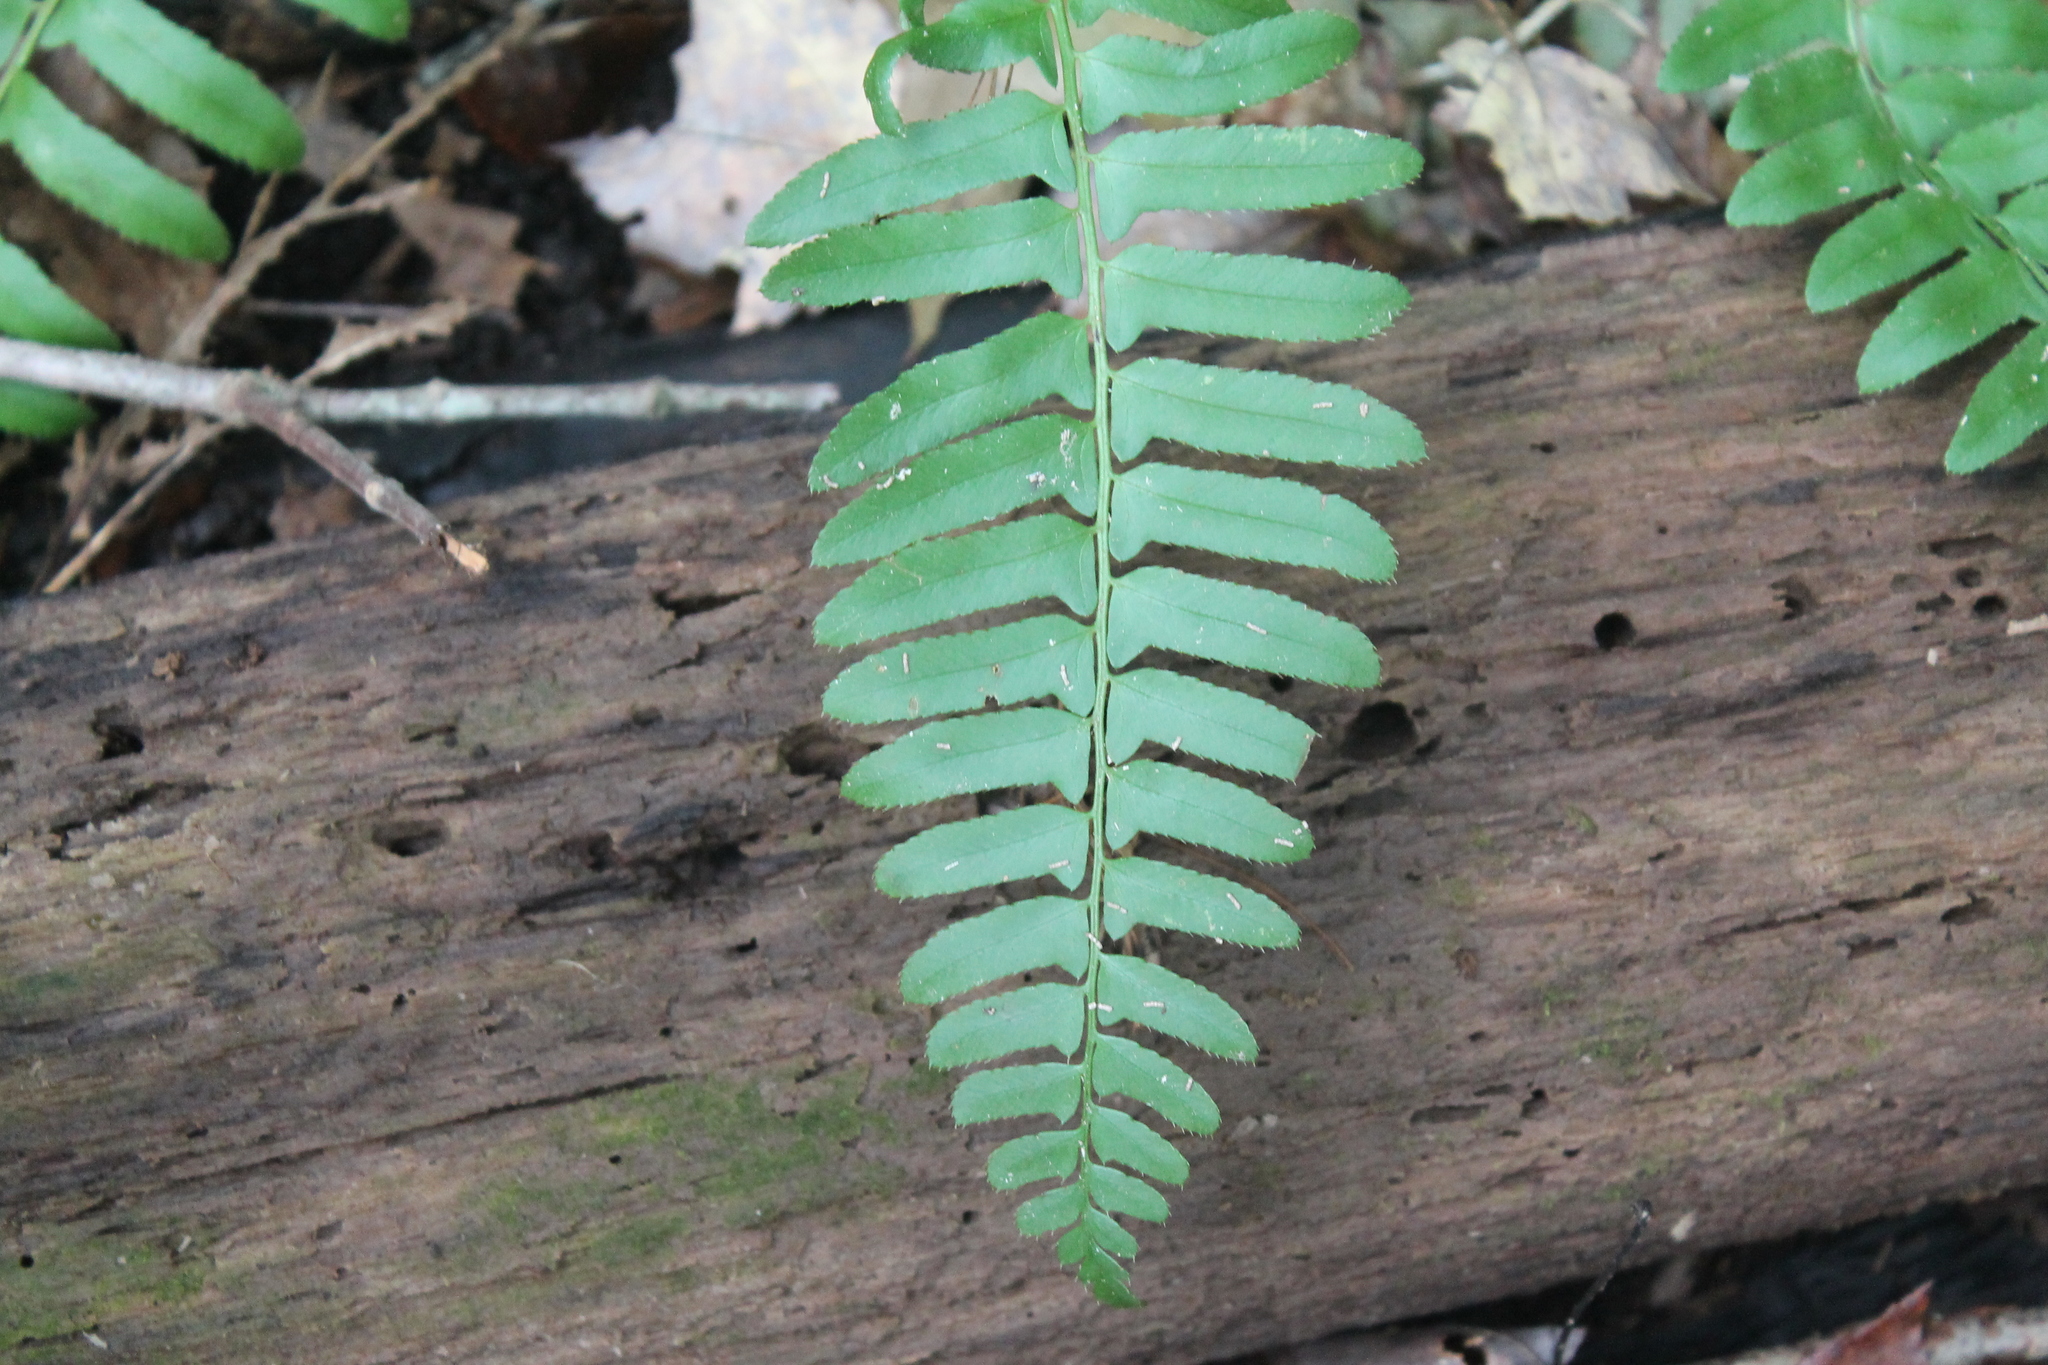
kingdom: Plantae
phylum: Tracheophyta
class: Polypodiopsida
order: Polypodiales
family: Dryopteridaceae
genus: Polystichum
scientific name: Polystichum acrostichoides
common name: Christmas fern
